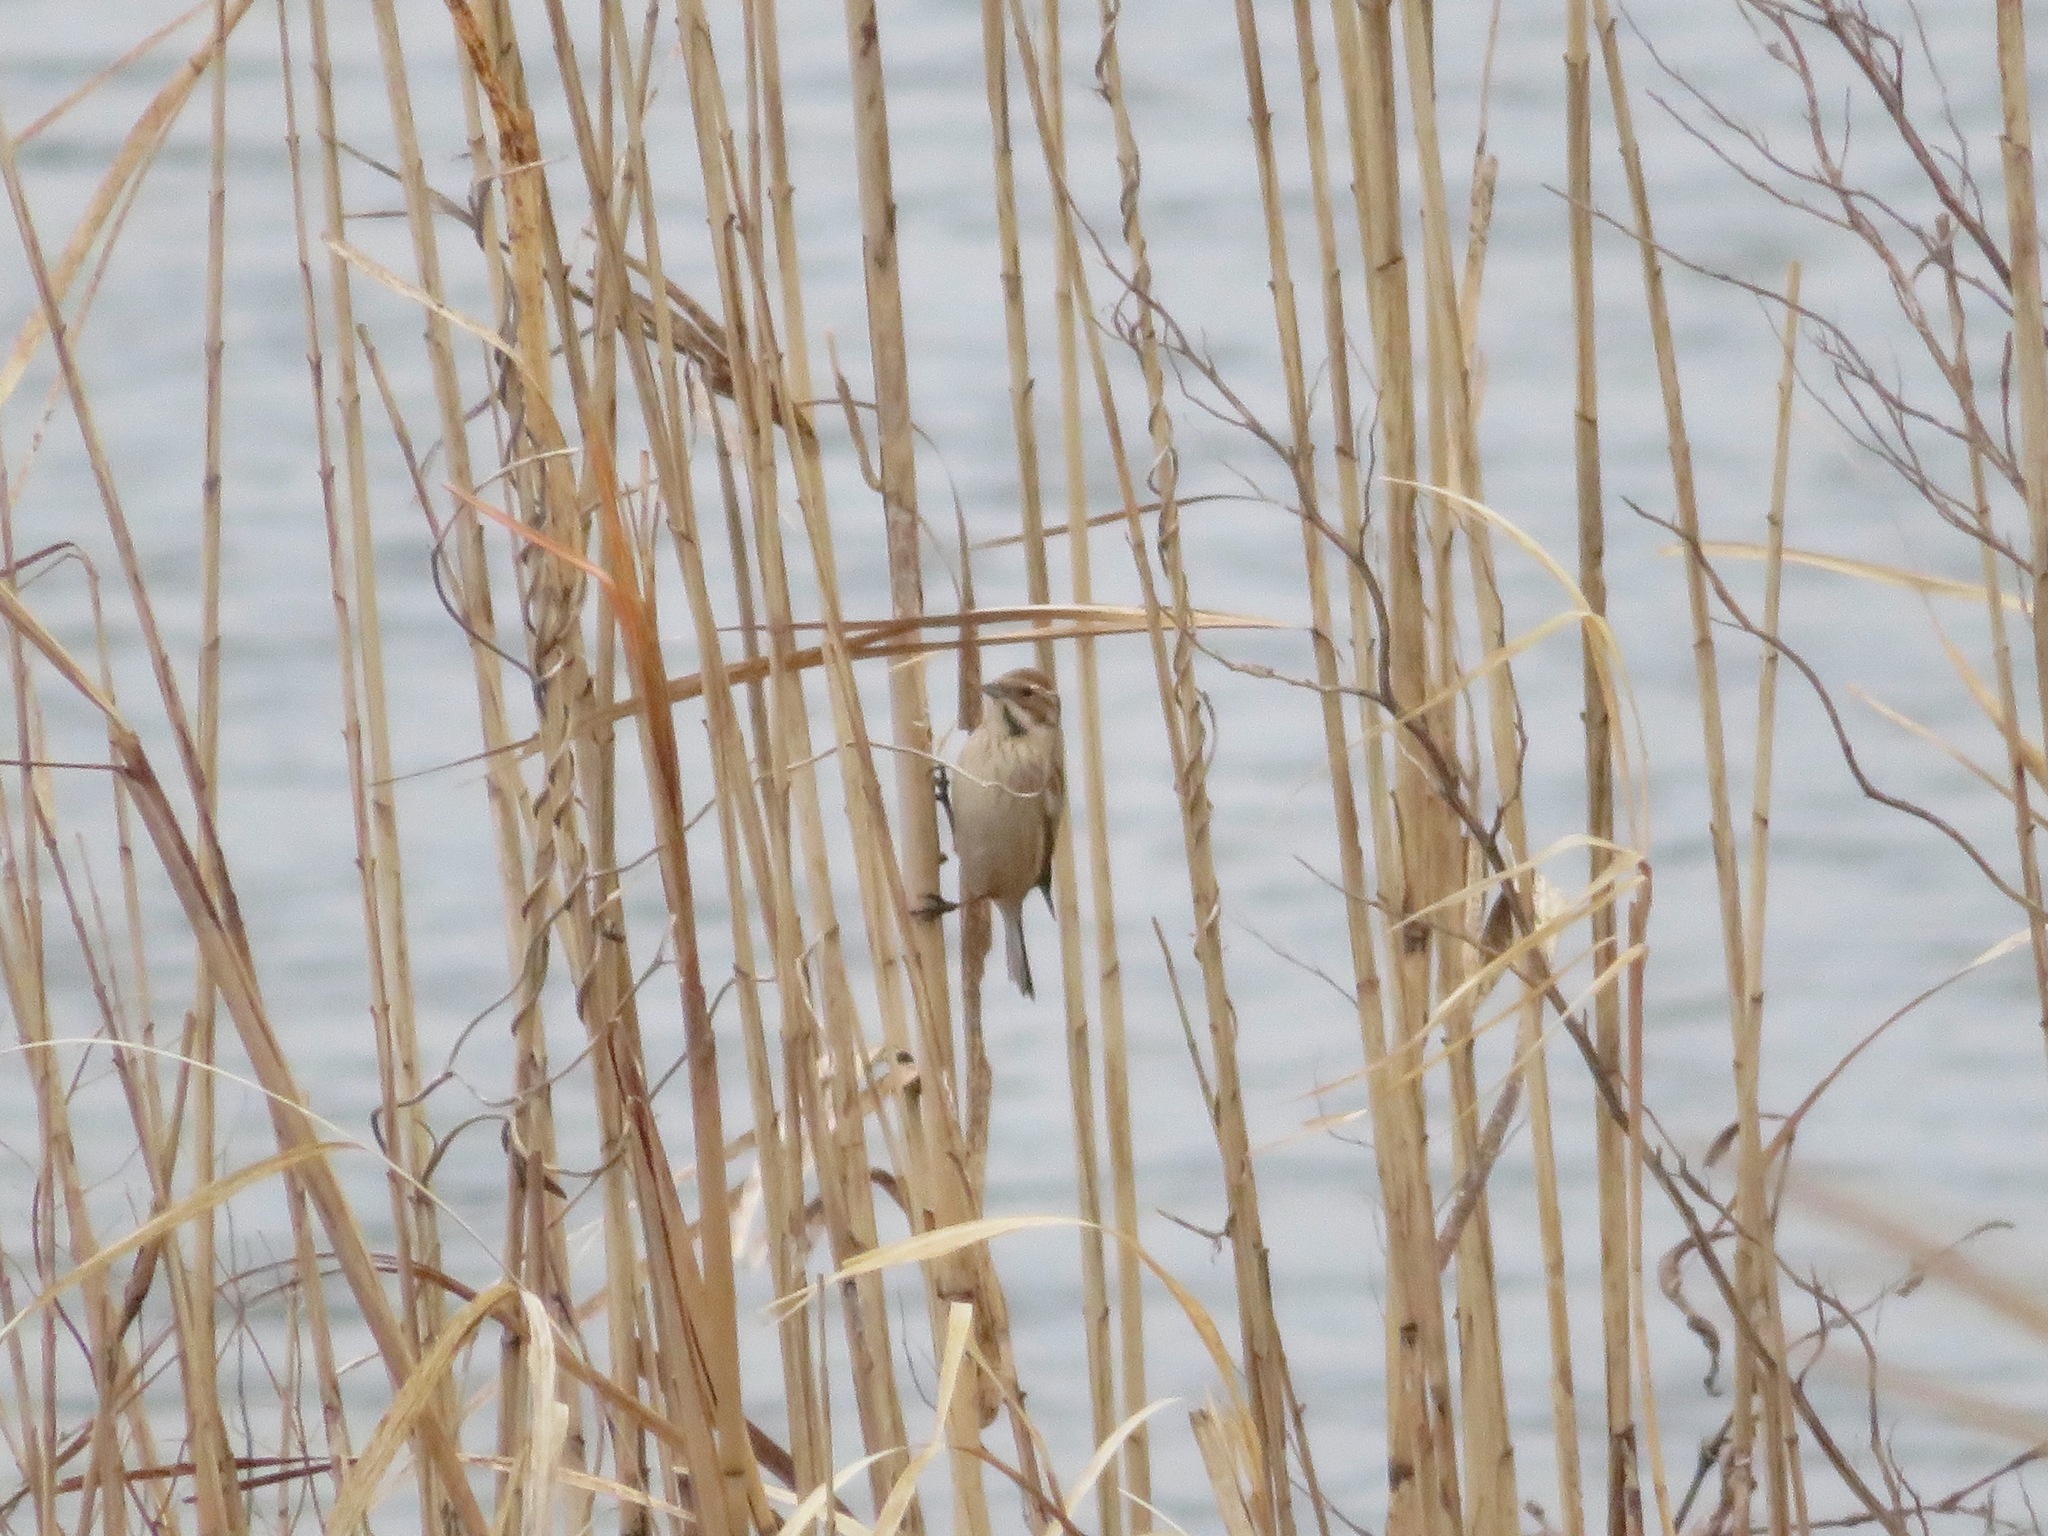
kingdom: Animalia
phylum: Chordata
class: Aves
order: Passeriformes
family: Emberizidae
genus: Emberiza
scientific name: Emberiza schoeniclus
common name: Reed bunting
